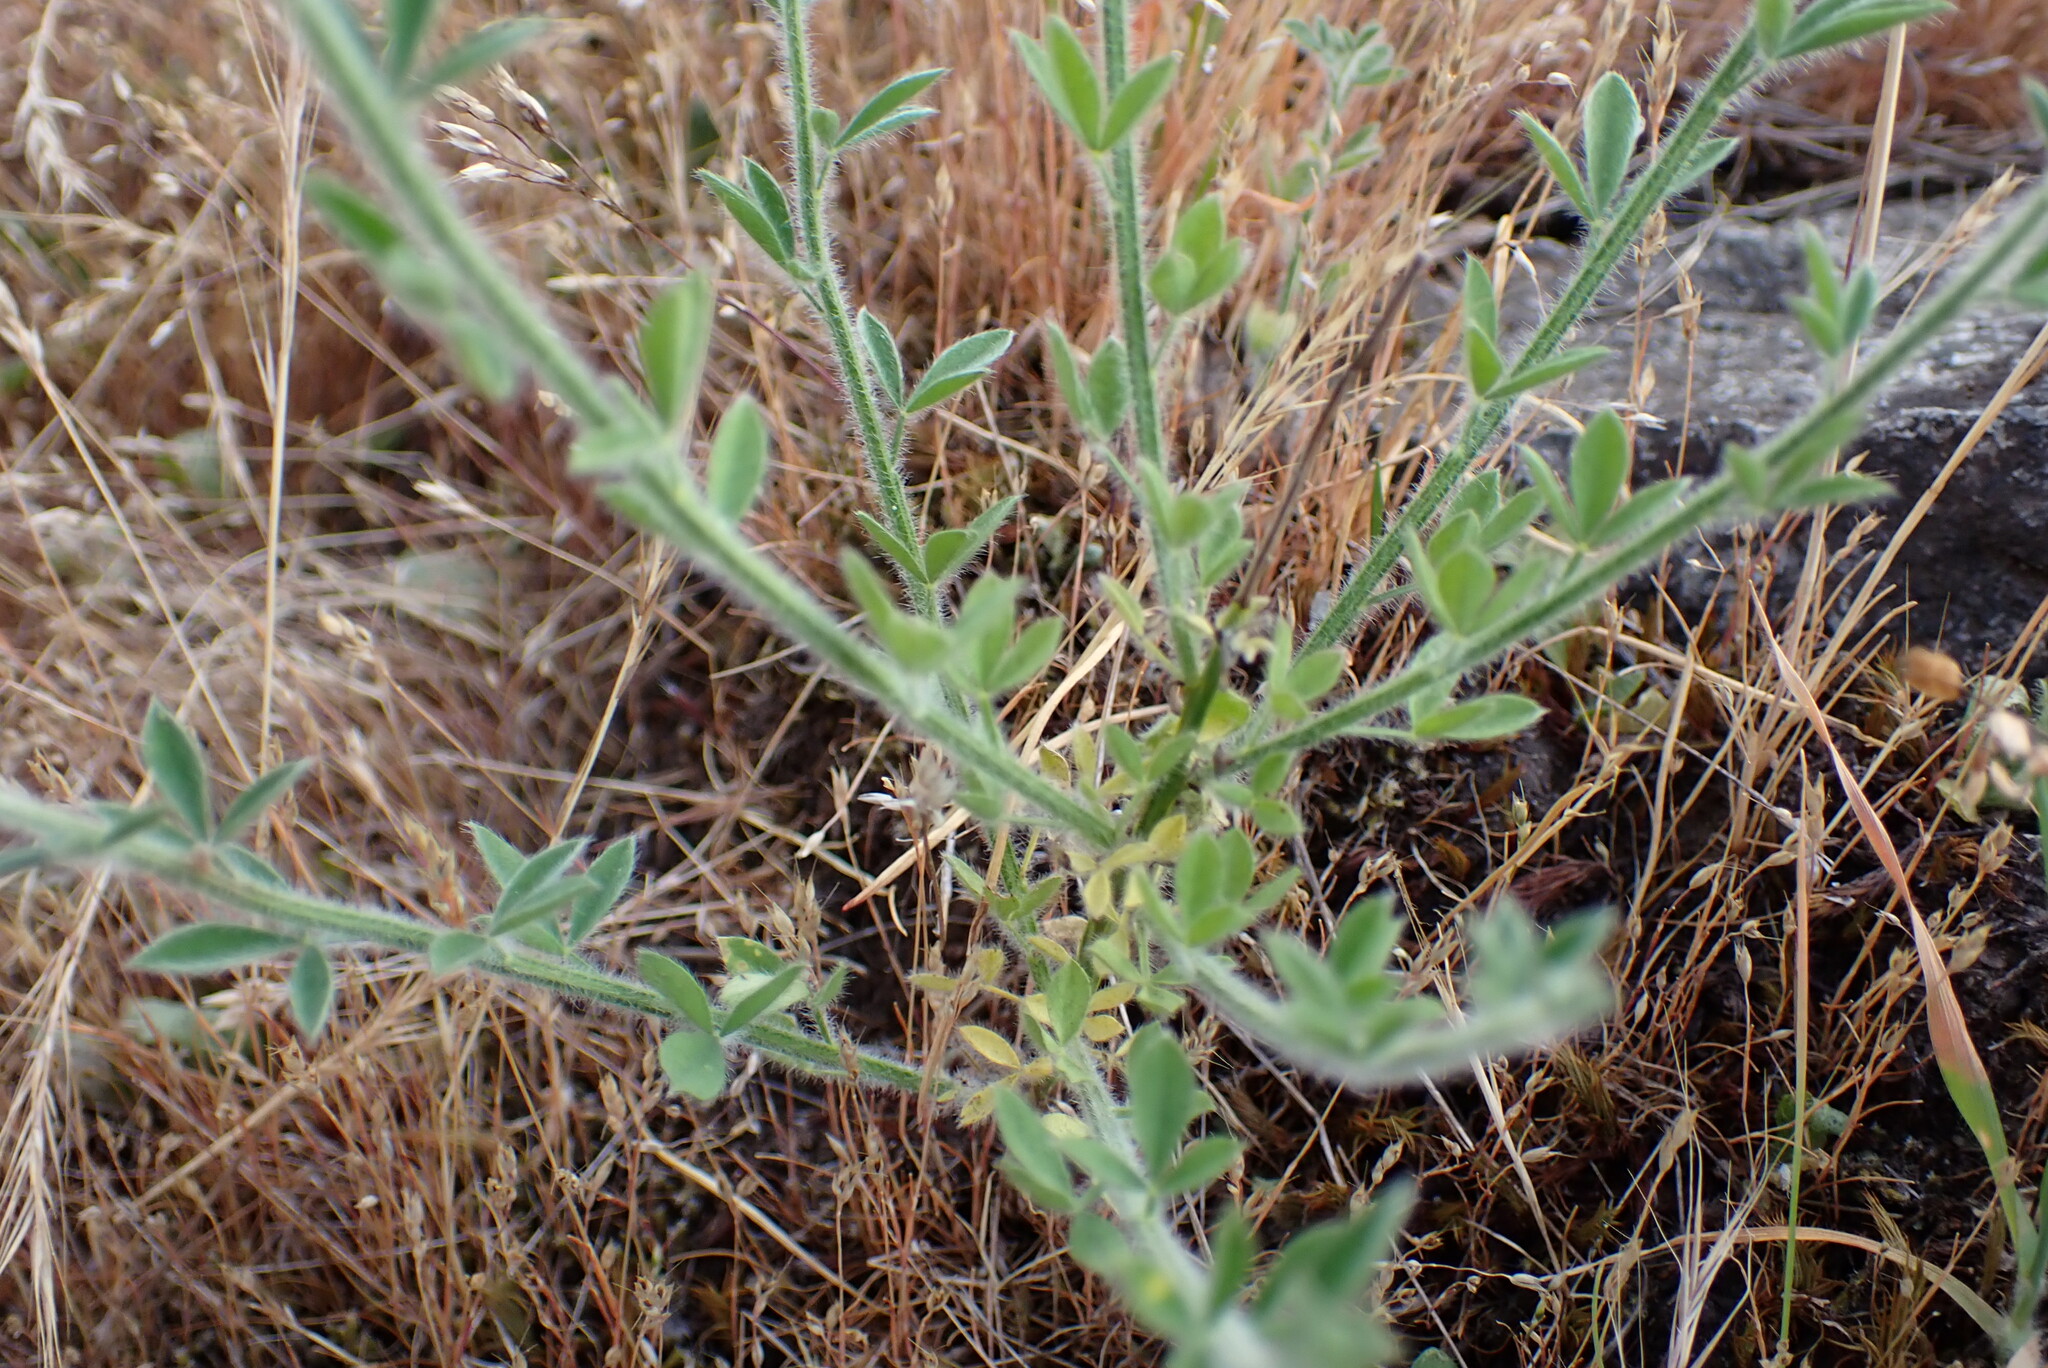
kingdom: Plantae
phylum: Tracheophyta
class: Magnoliopsida
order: Fabales
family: Fabaceae
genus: Cytisus
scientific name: Cytisus scoparius
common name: Scotch broom
